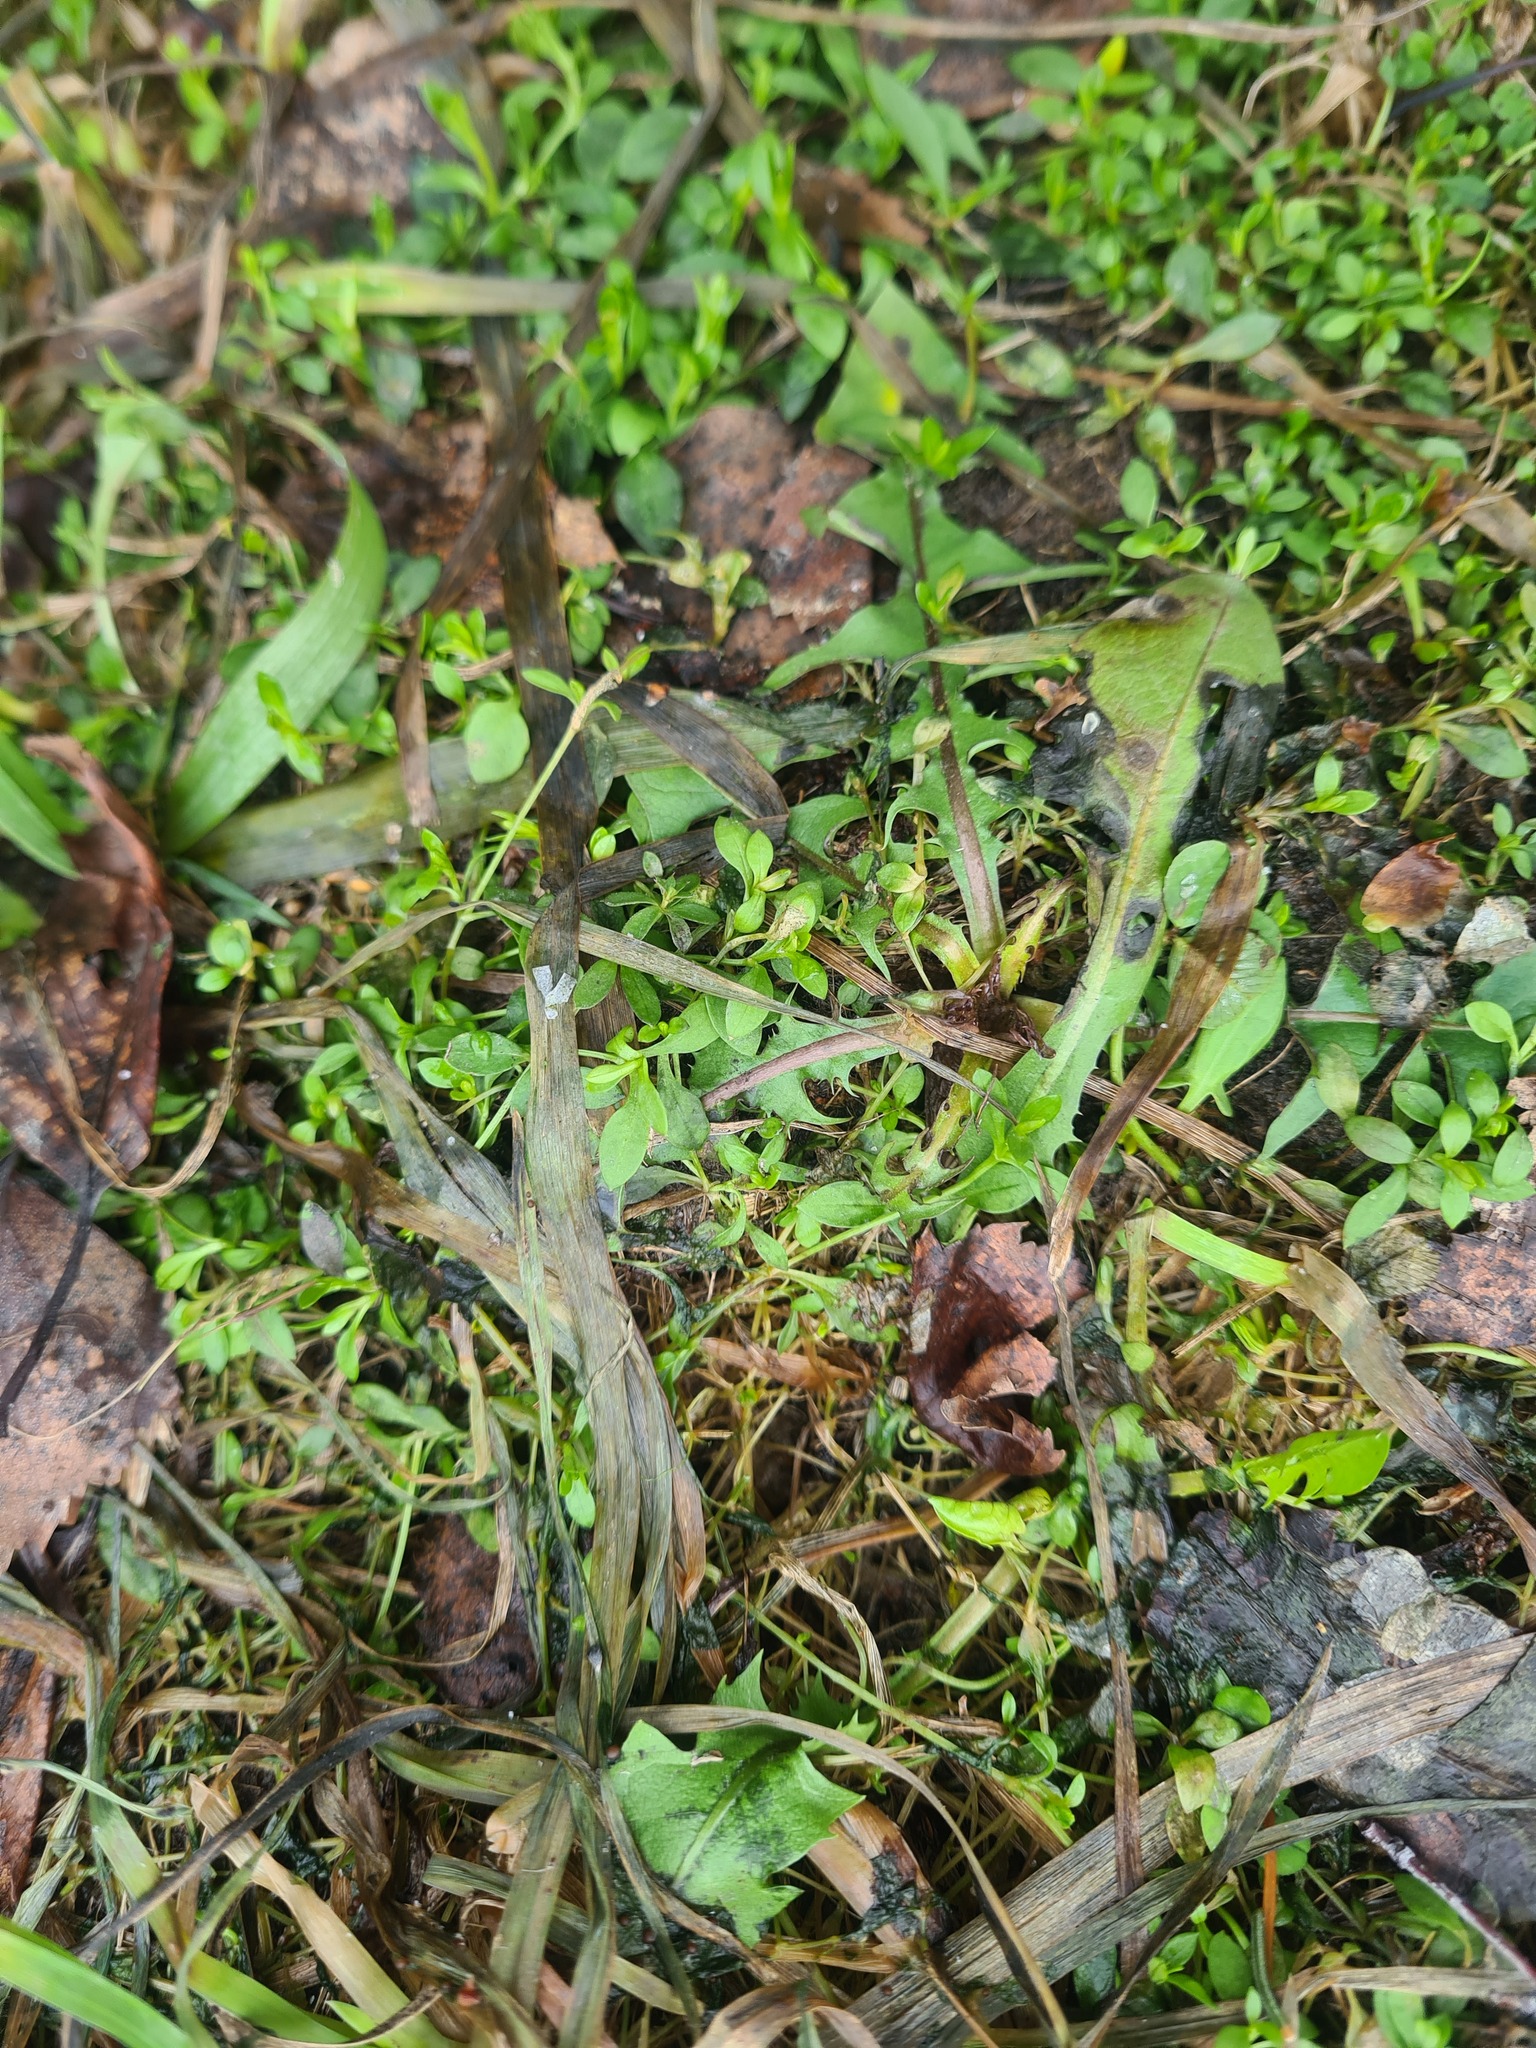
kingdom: Plantae
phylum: Tracheophyta
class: Magnoliopsida
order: Asterales
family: Asteraceae
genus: Taraxacum
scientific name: Taraxacum officinale
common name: Common dandelion
